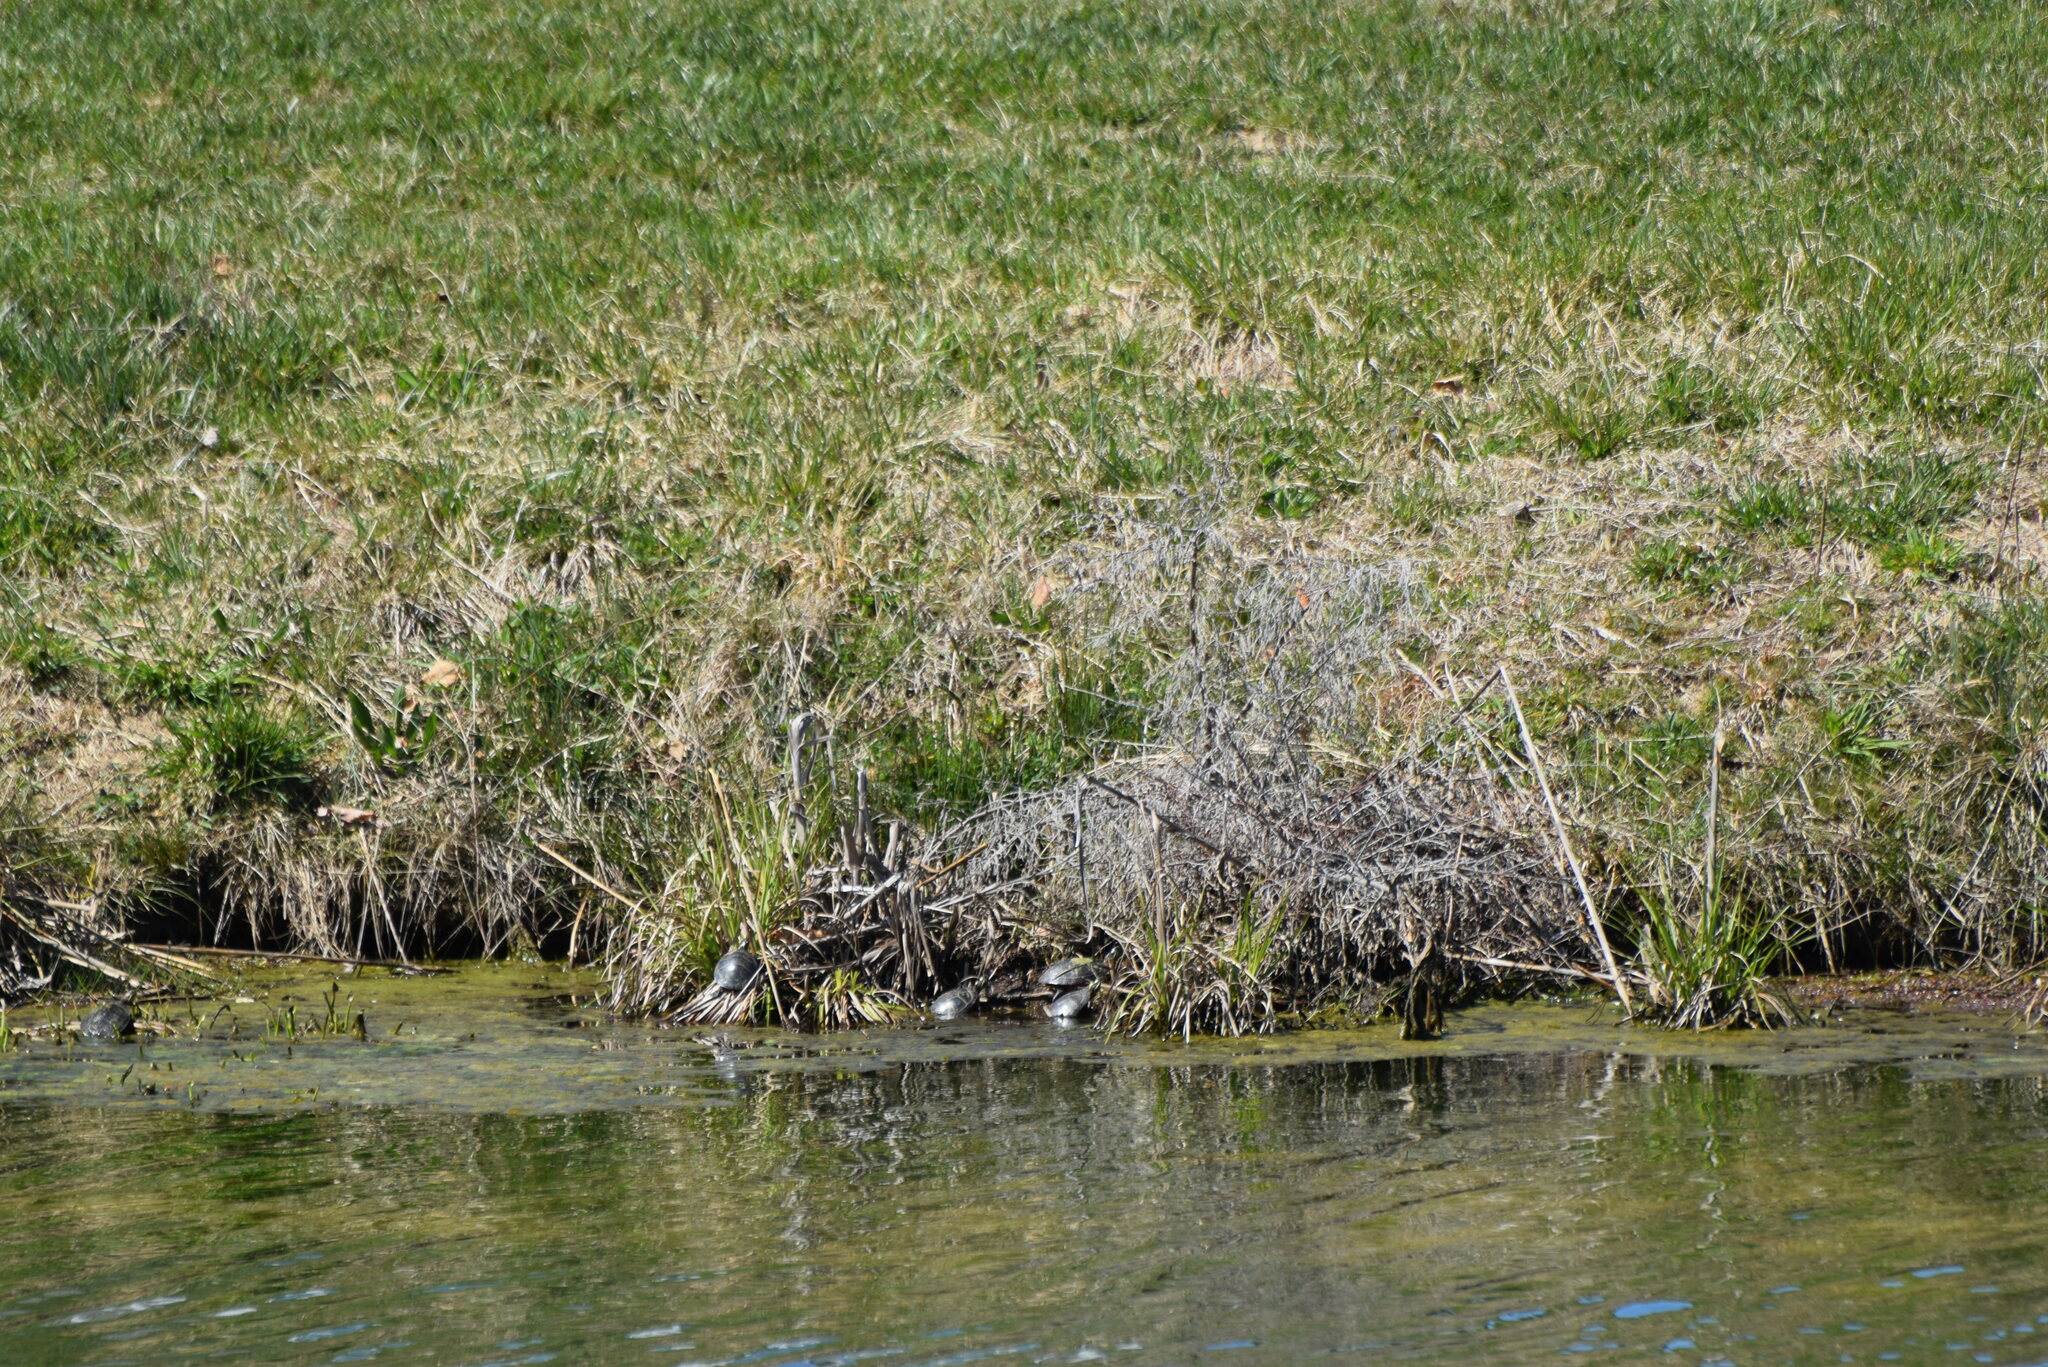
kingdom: Animalia
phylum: Chordata
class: Testudines
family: Emydidae
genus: Chrysemys
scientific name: Chrysemys picta
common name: Painted turtle
